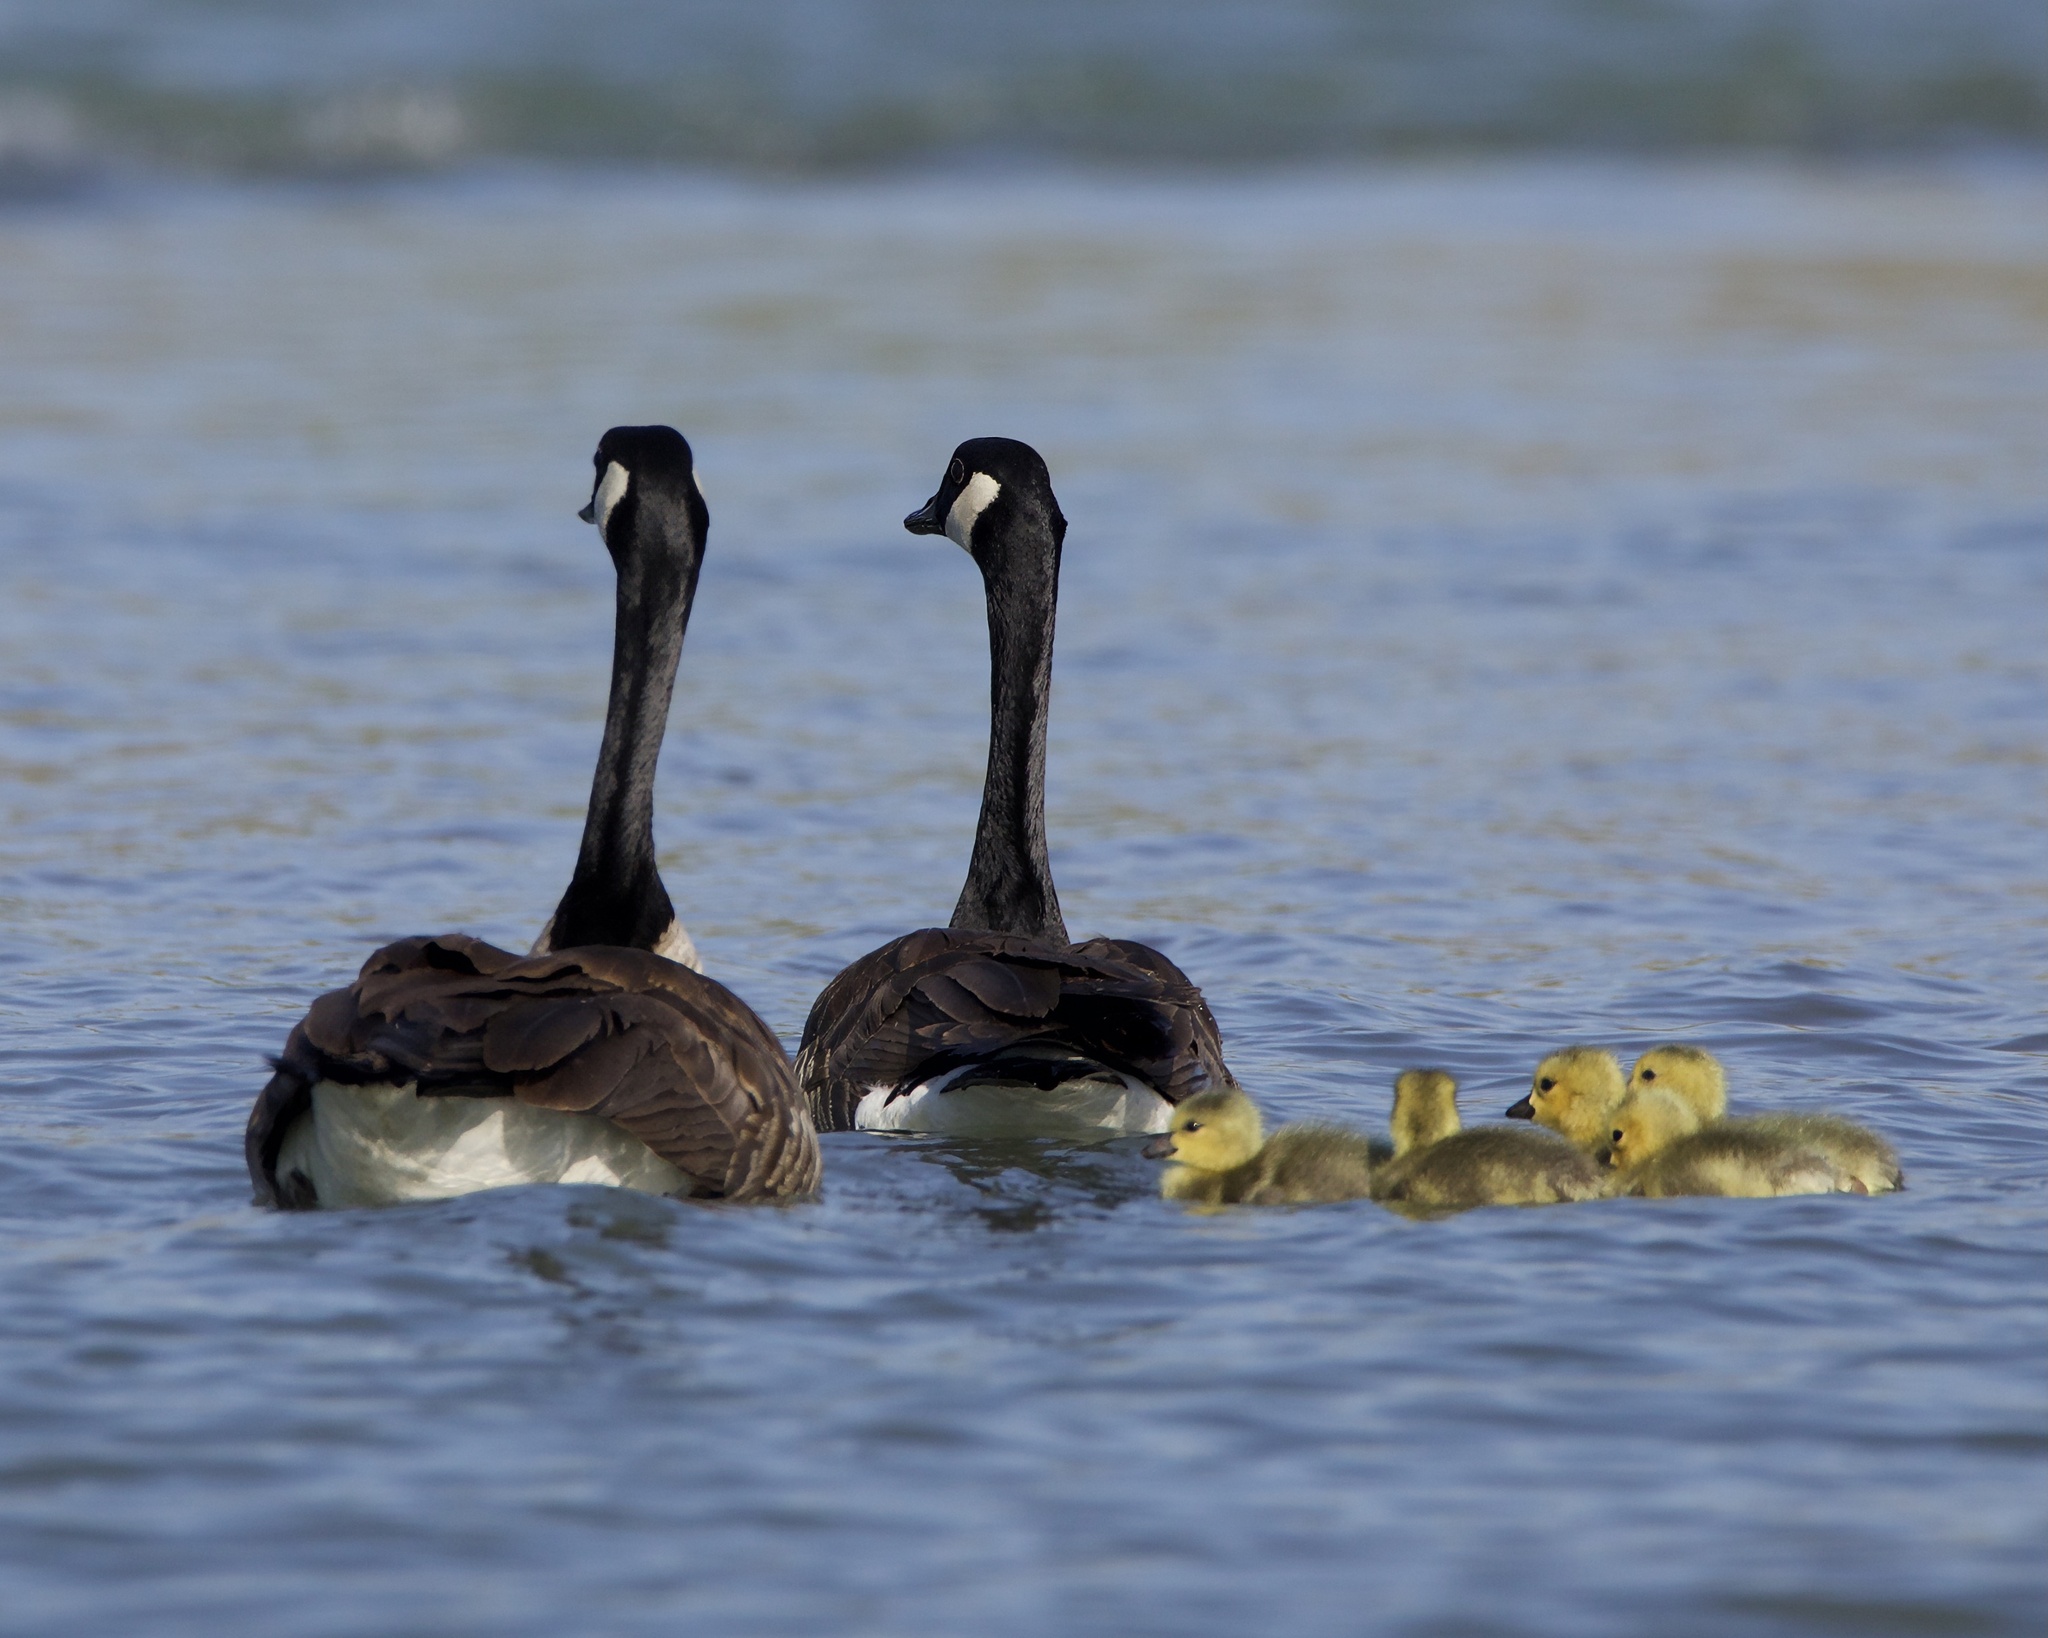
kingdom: Animalia
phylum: Chordata
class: Aves
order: Anseriformes
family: Anatidae
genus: Branta
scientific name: Branta canadensis
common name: Canada goose
